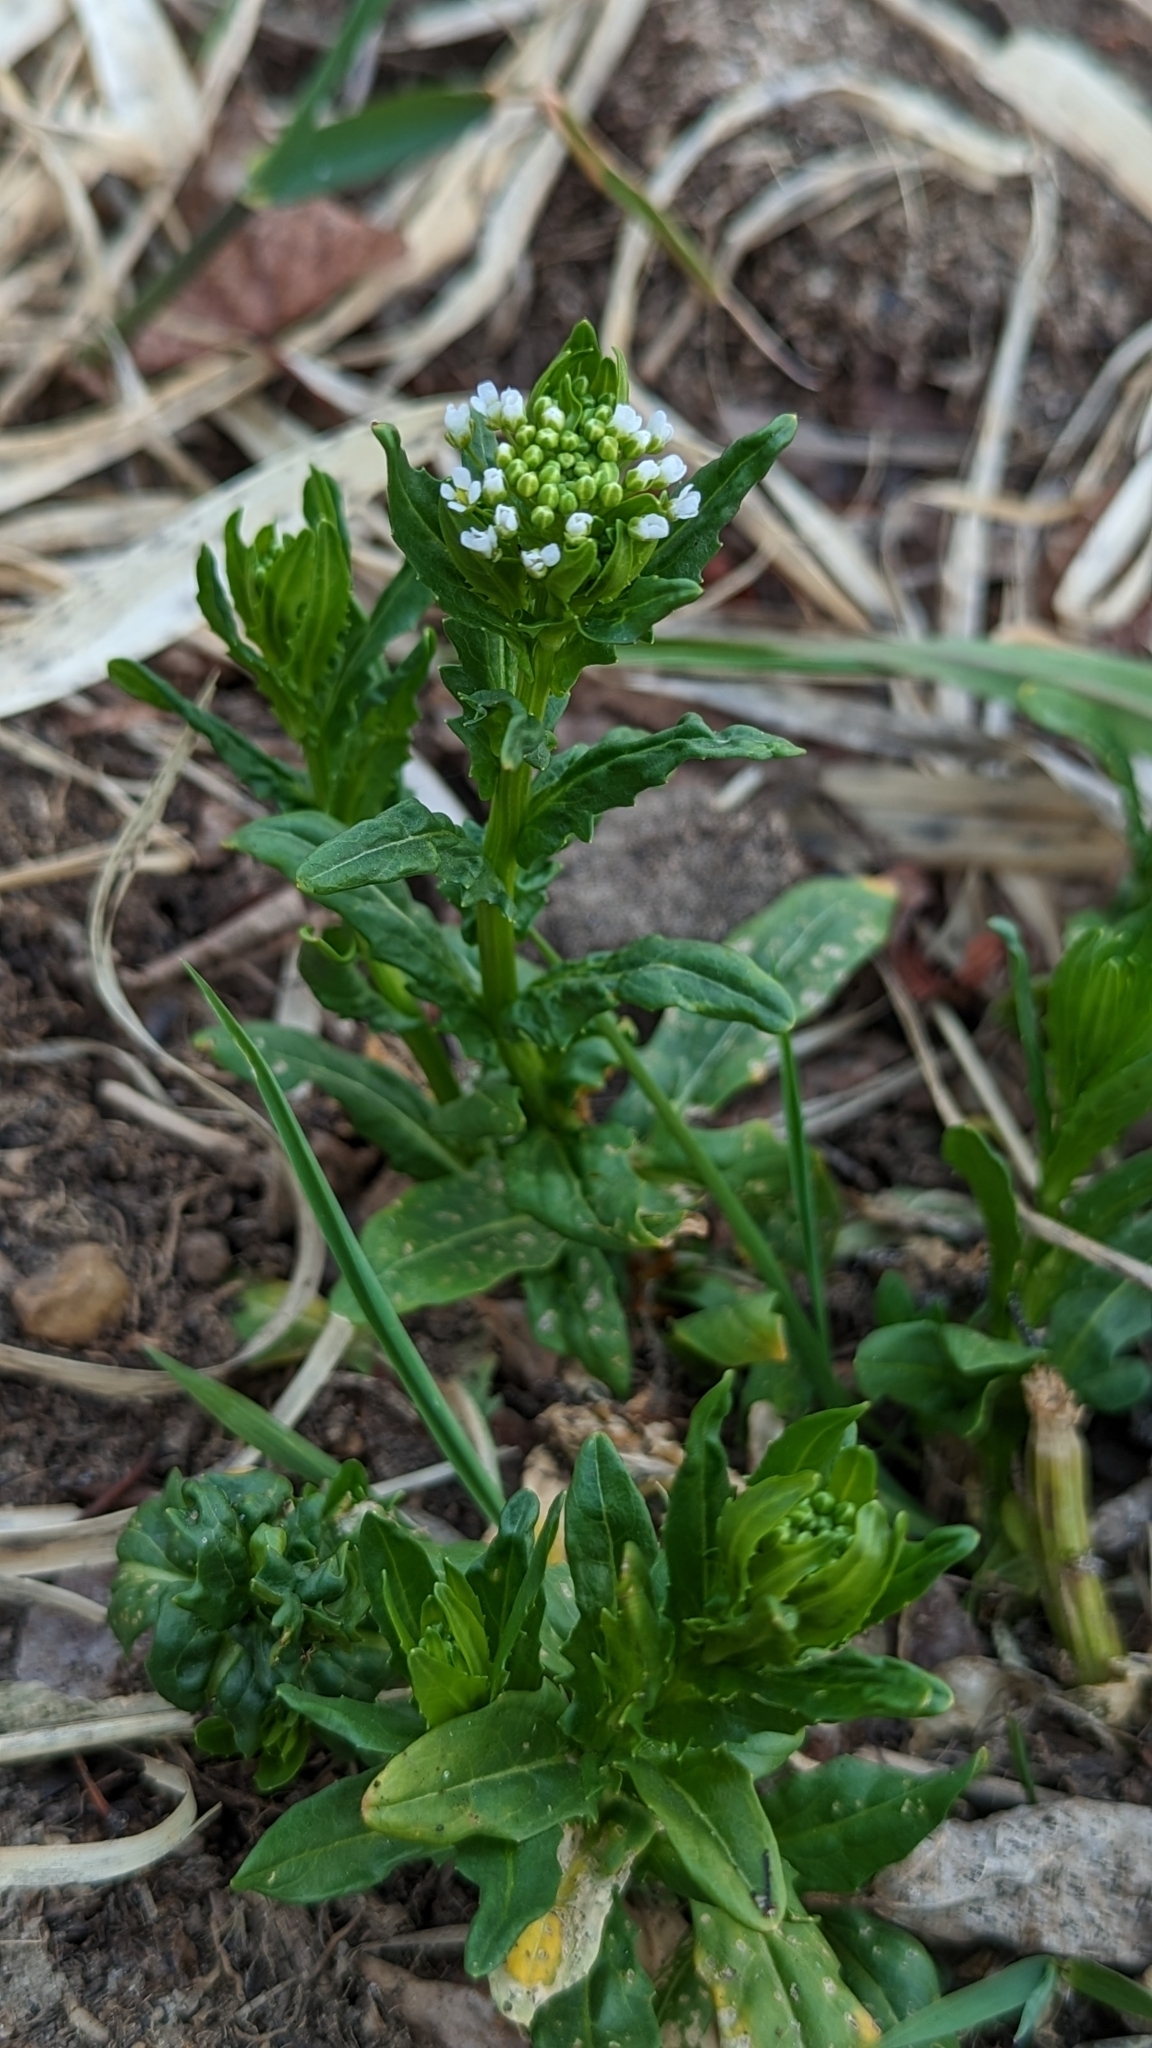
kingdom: Plantae
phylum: Tracheophyta
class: Magnoliopsida
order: Brassicales
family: Brassicaceae
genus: Thlaspi
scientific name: Thlaspi arvense
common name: Field pennycress
